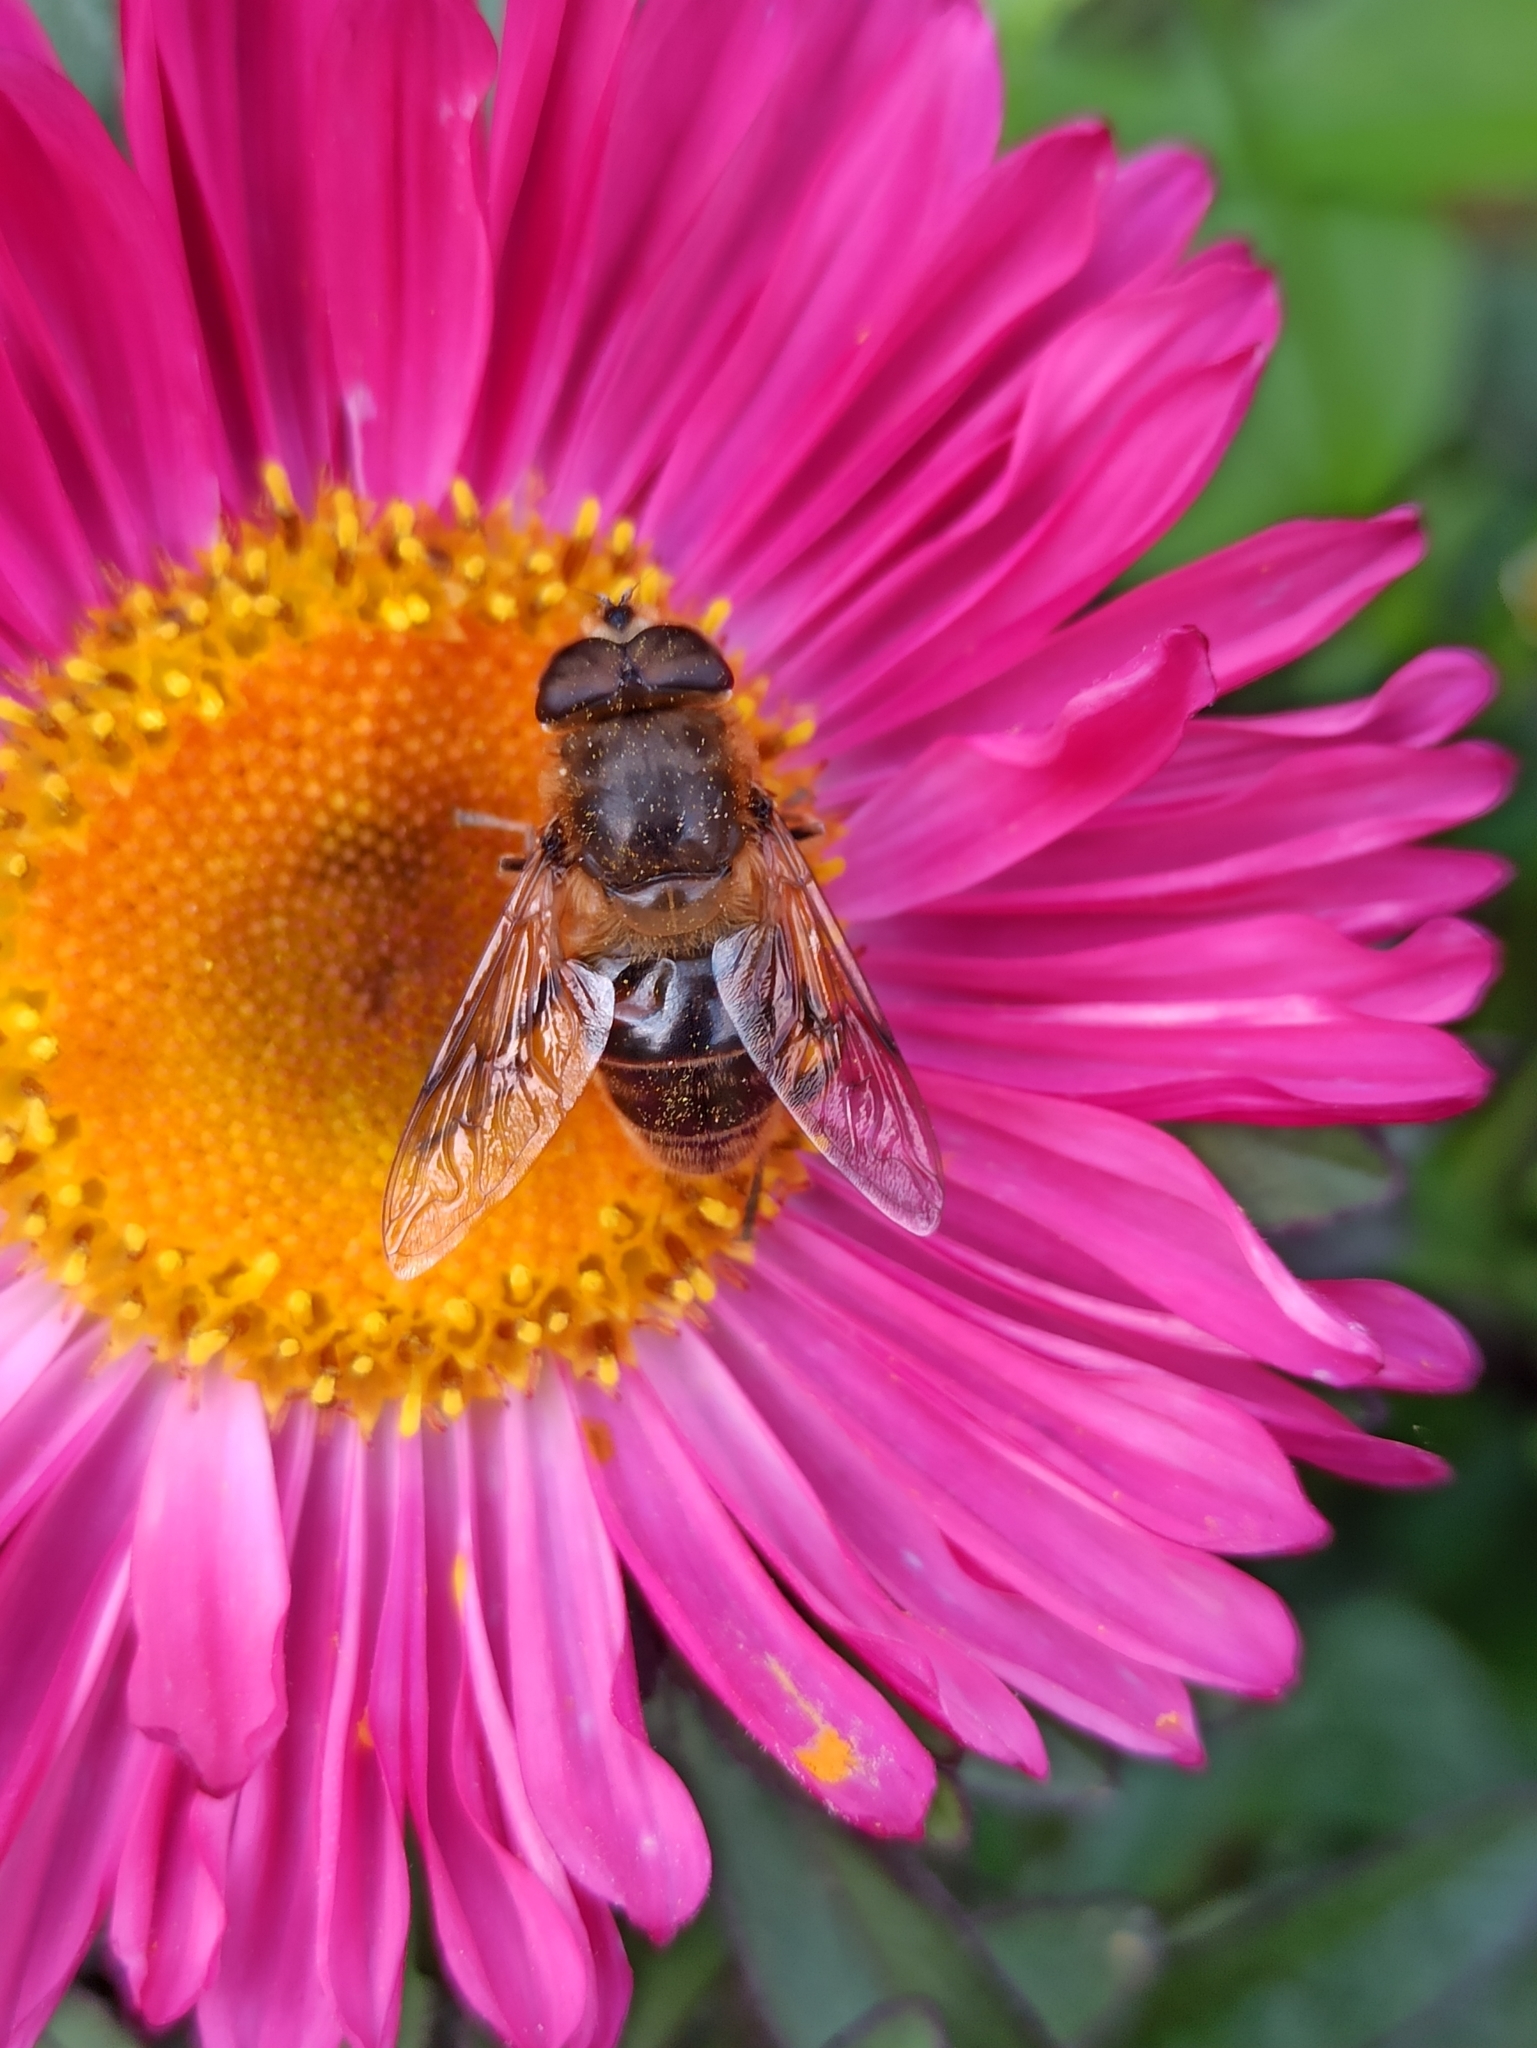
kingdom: Animalia
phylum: Arthropoda
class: Insecta
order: Diptera
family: Syrphidae
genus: Eristalis
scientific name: Eristalis tenax
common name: Drone fly
